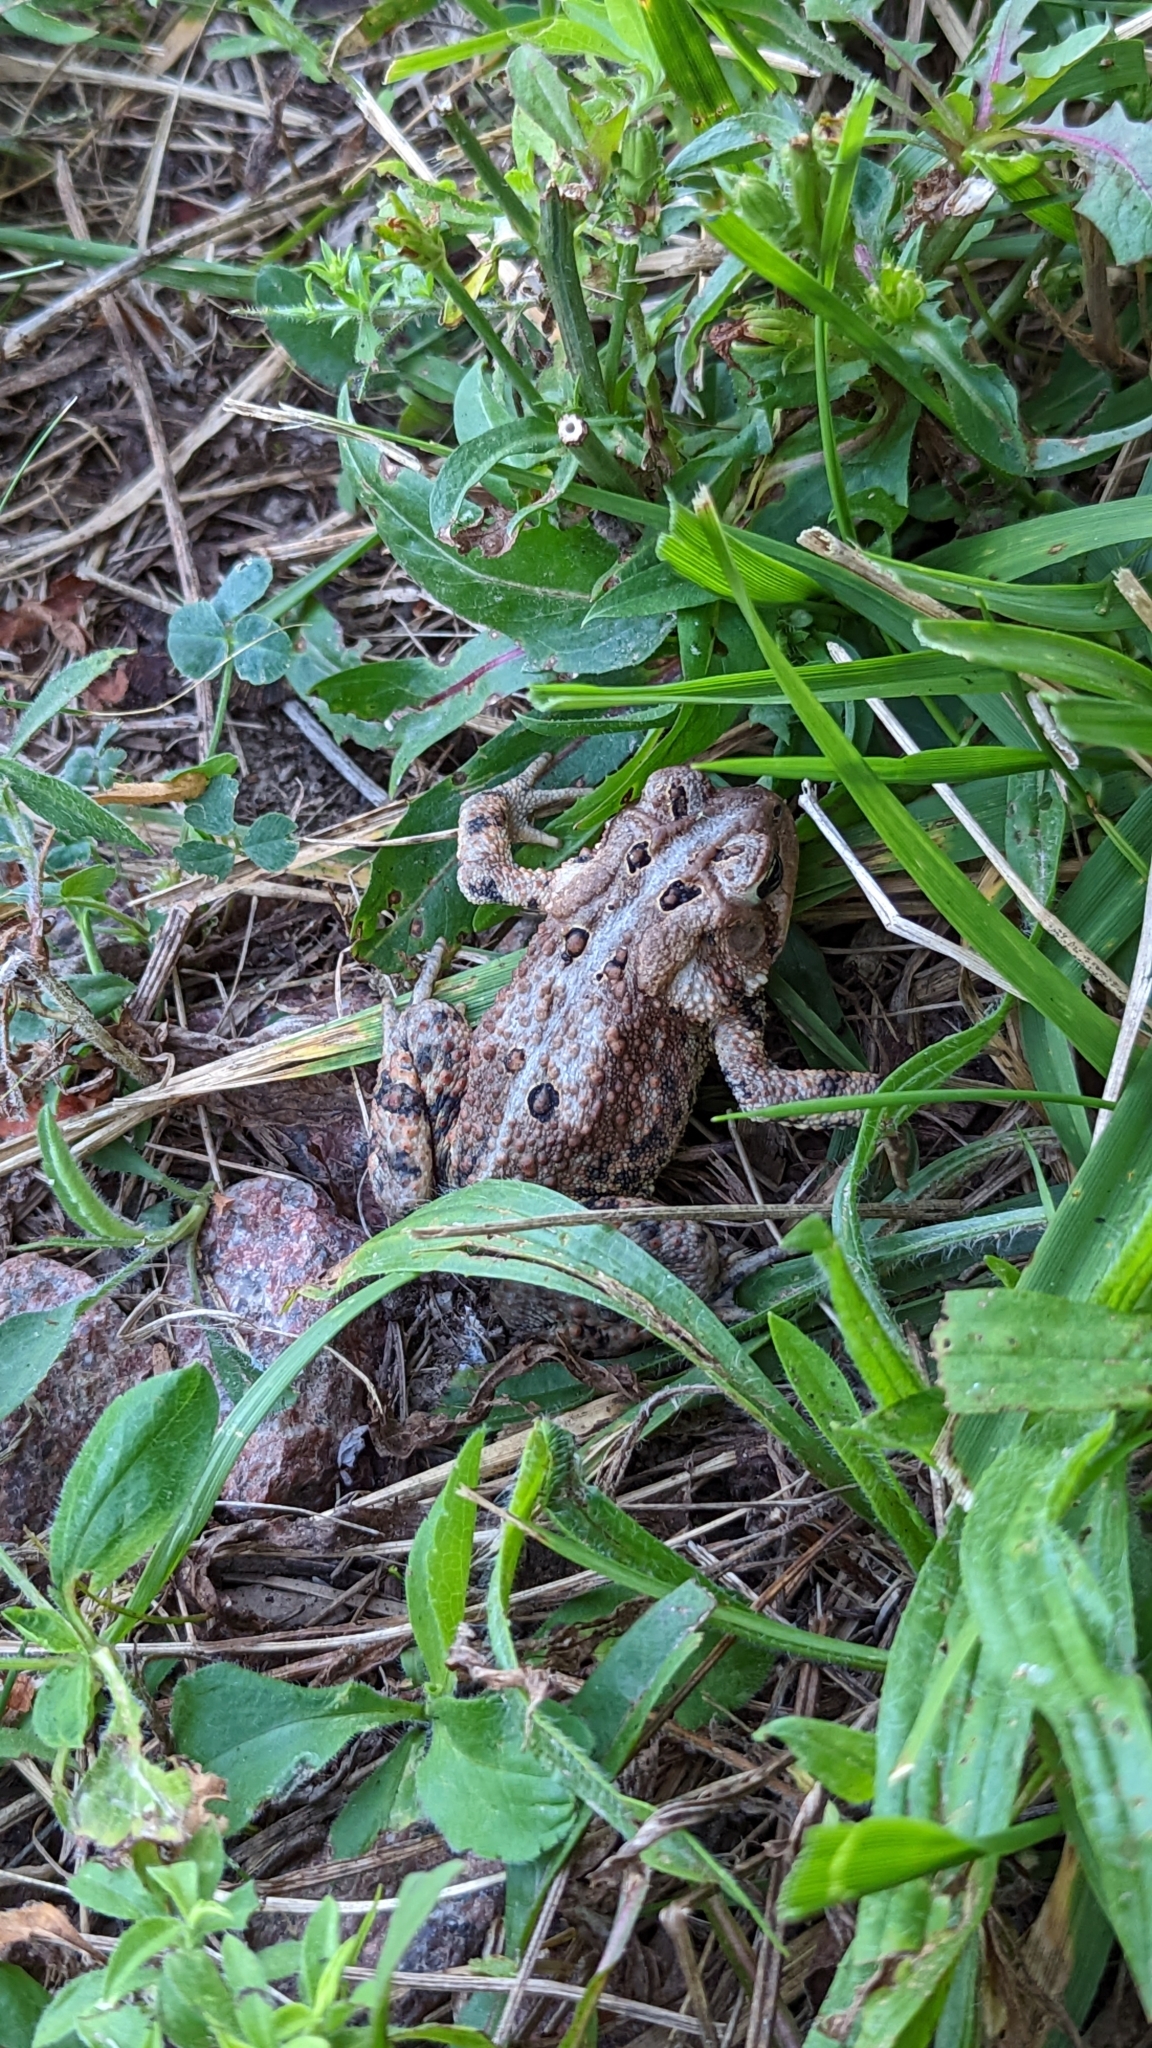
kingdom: Animalia
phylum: Chordata
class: Amphibia
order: Anura
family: Bufonidae
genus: Anaxyrus
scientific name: Anaxyrus americanus
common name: American toad
